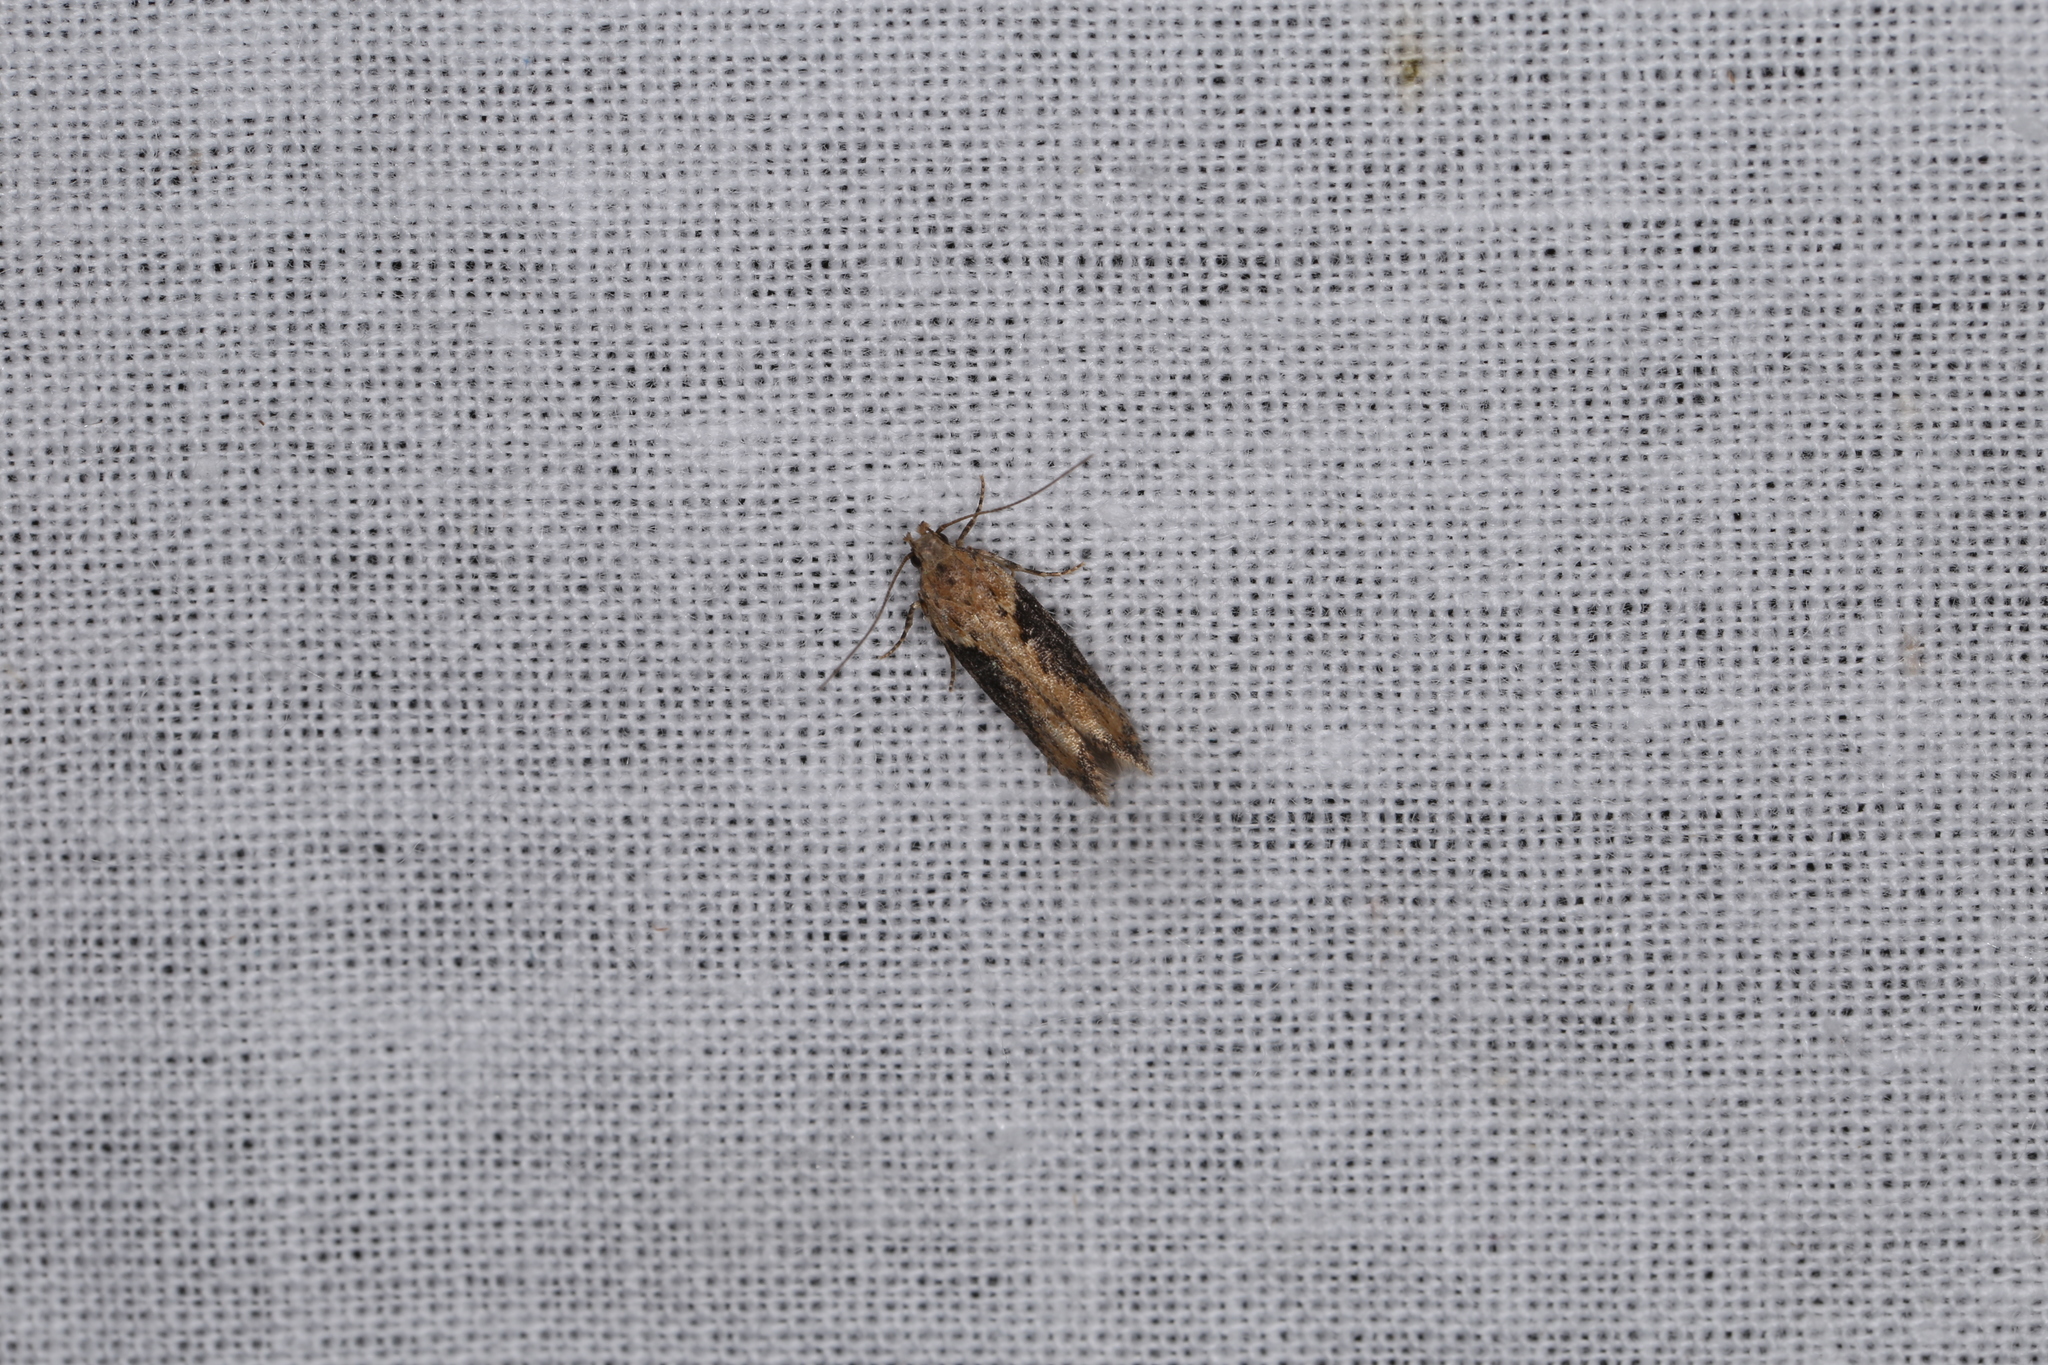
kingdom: Animalia
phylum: Arthropoda
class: Insecta
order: Lepidoptera
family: Gelechiidae
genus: Scrobipalpa
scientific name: Scrobipalpa costella
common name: Winter groundling
